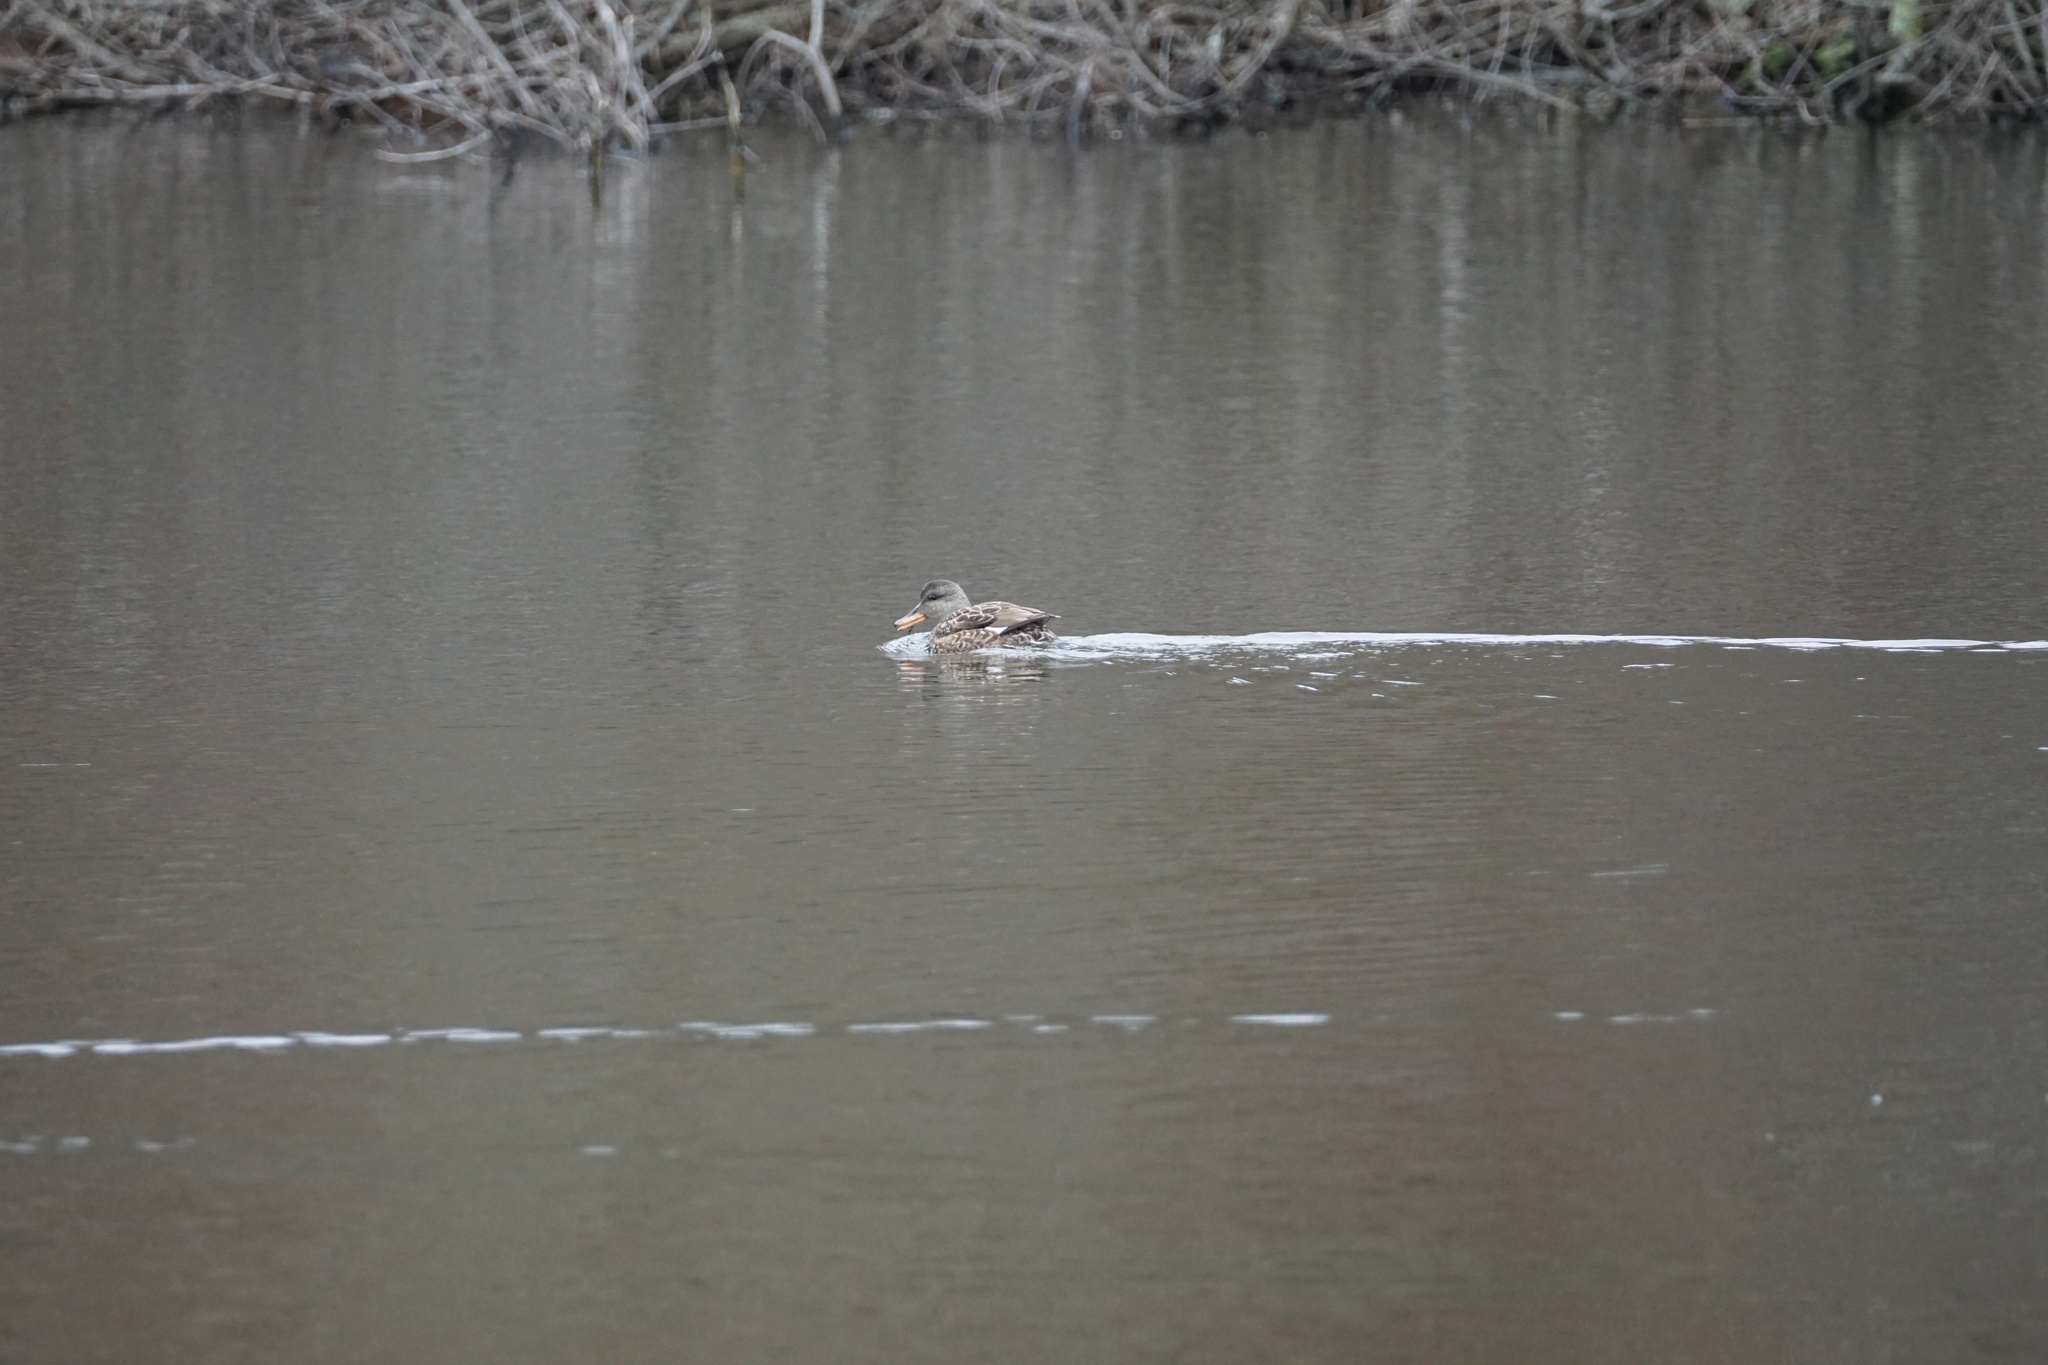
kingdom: Animalia
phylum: Chordata
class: Aves
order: Anseriformes
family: Anatidae
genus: Mareca
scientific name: Mareca strepera
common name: Gadwall
